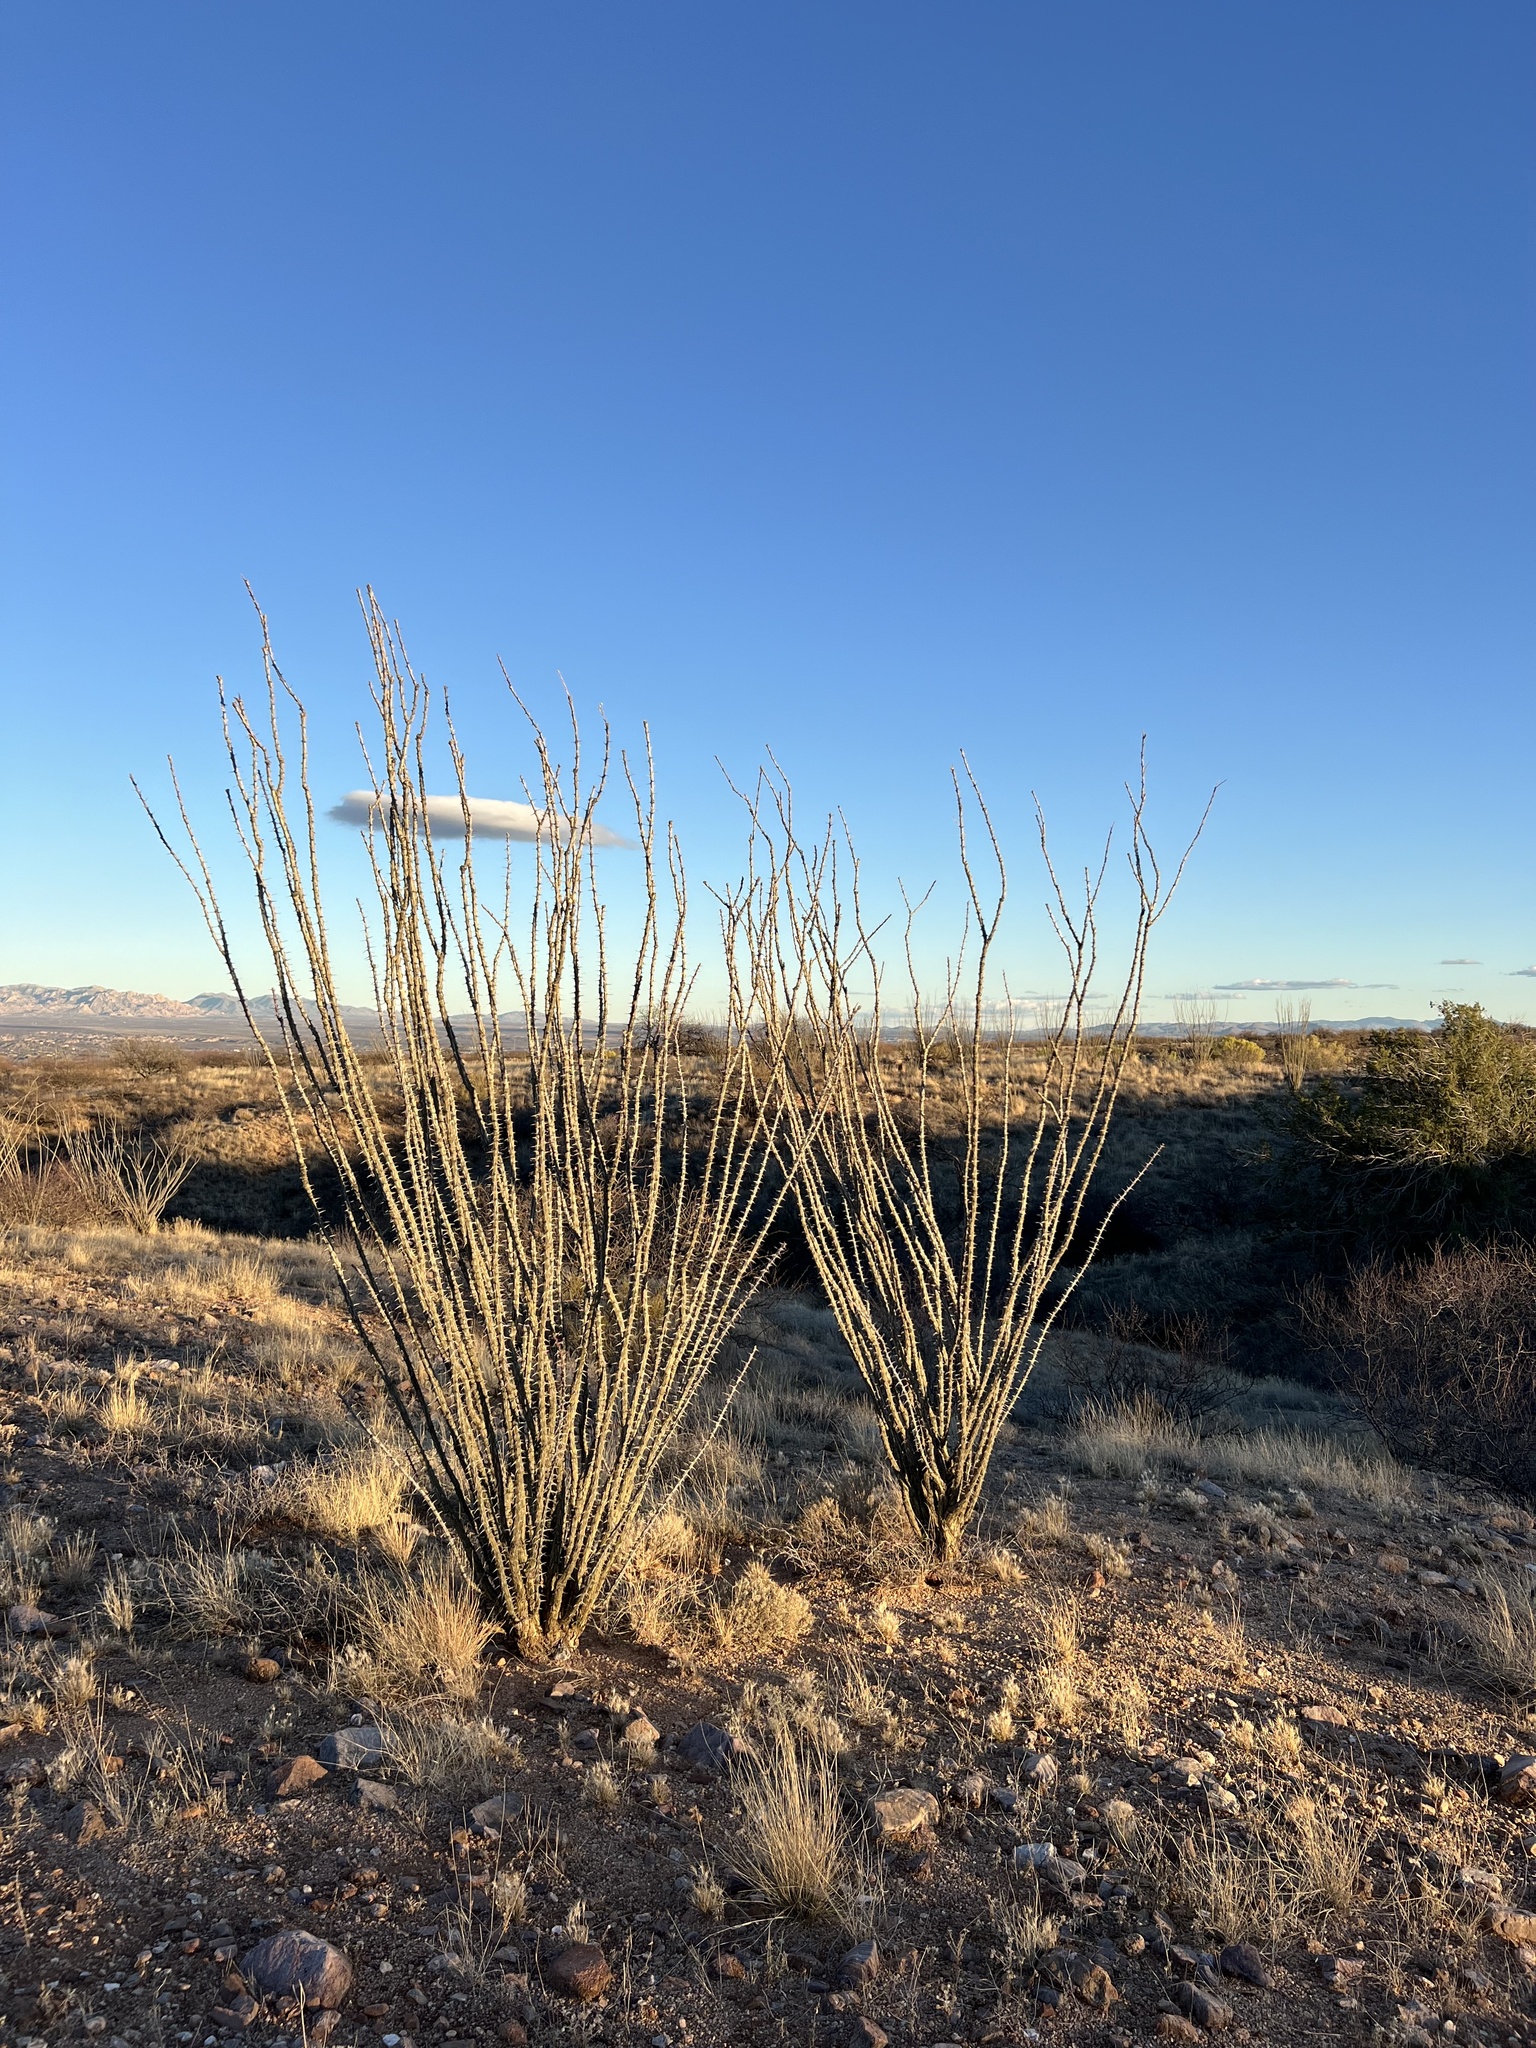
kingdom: Plantae
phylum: Tracheophyta
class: Magnoliopsida
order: Ericales
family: Fouquieriaceae
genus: Fouquieria
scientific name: Fouquieria splendens
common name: Vine-cactus
